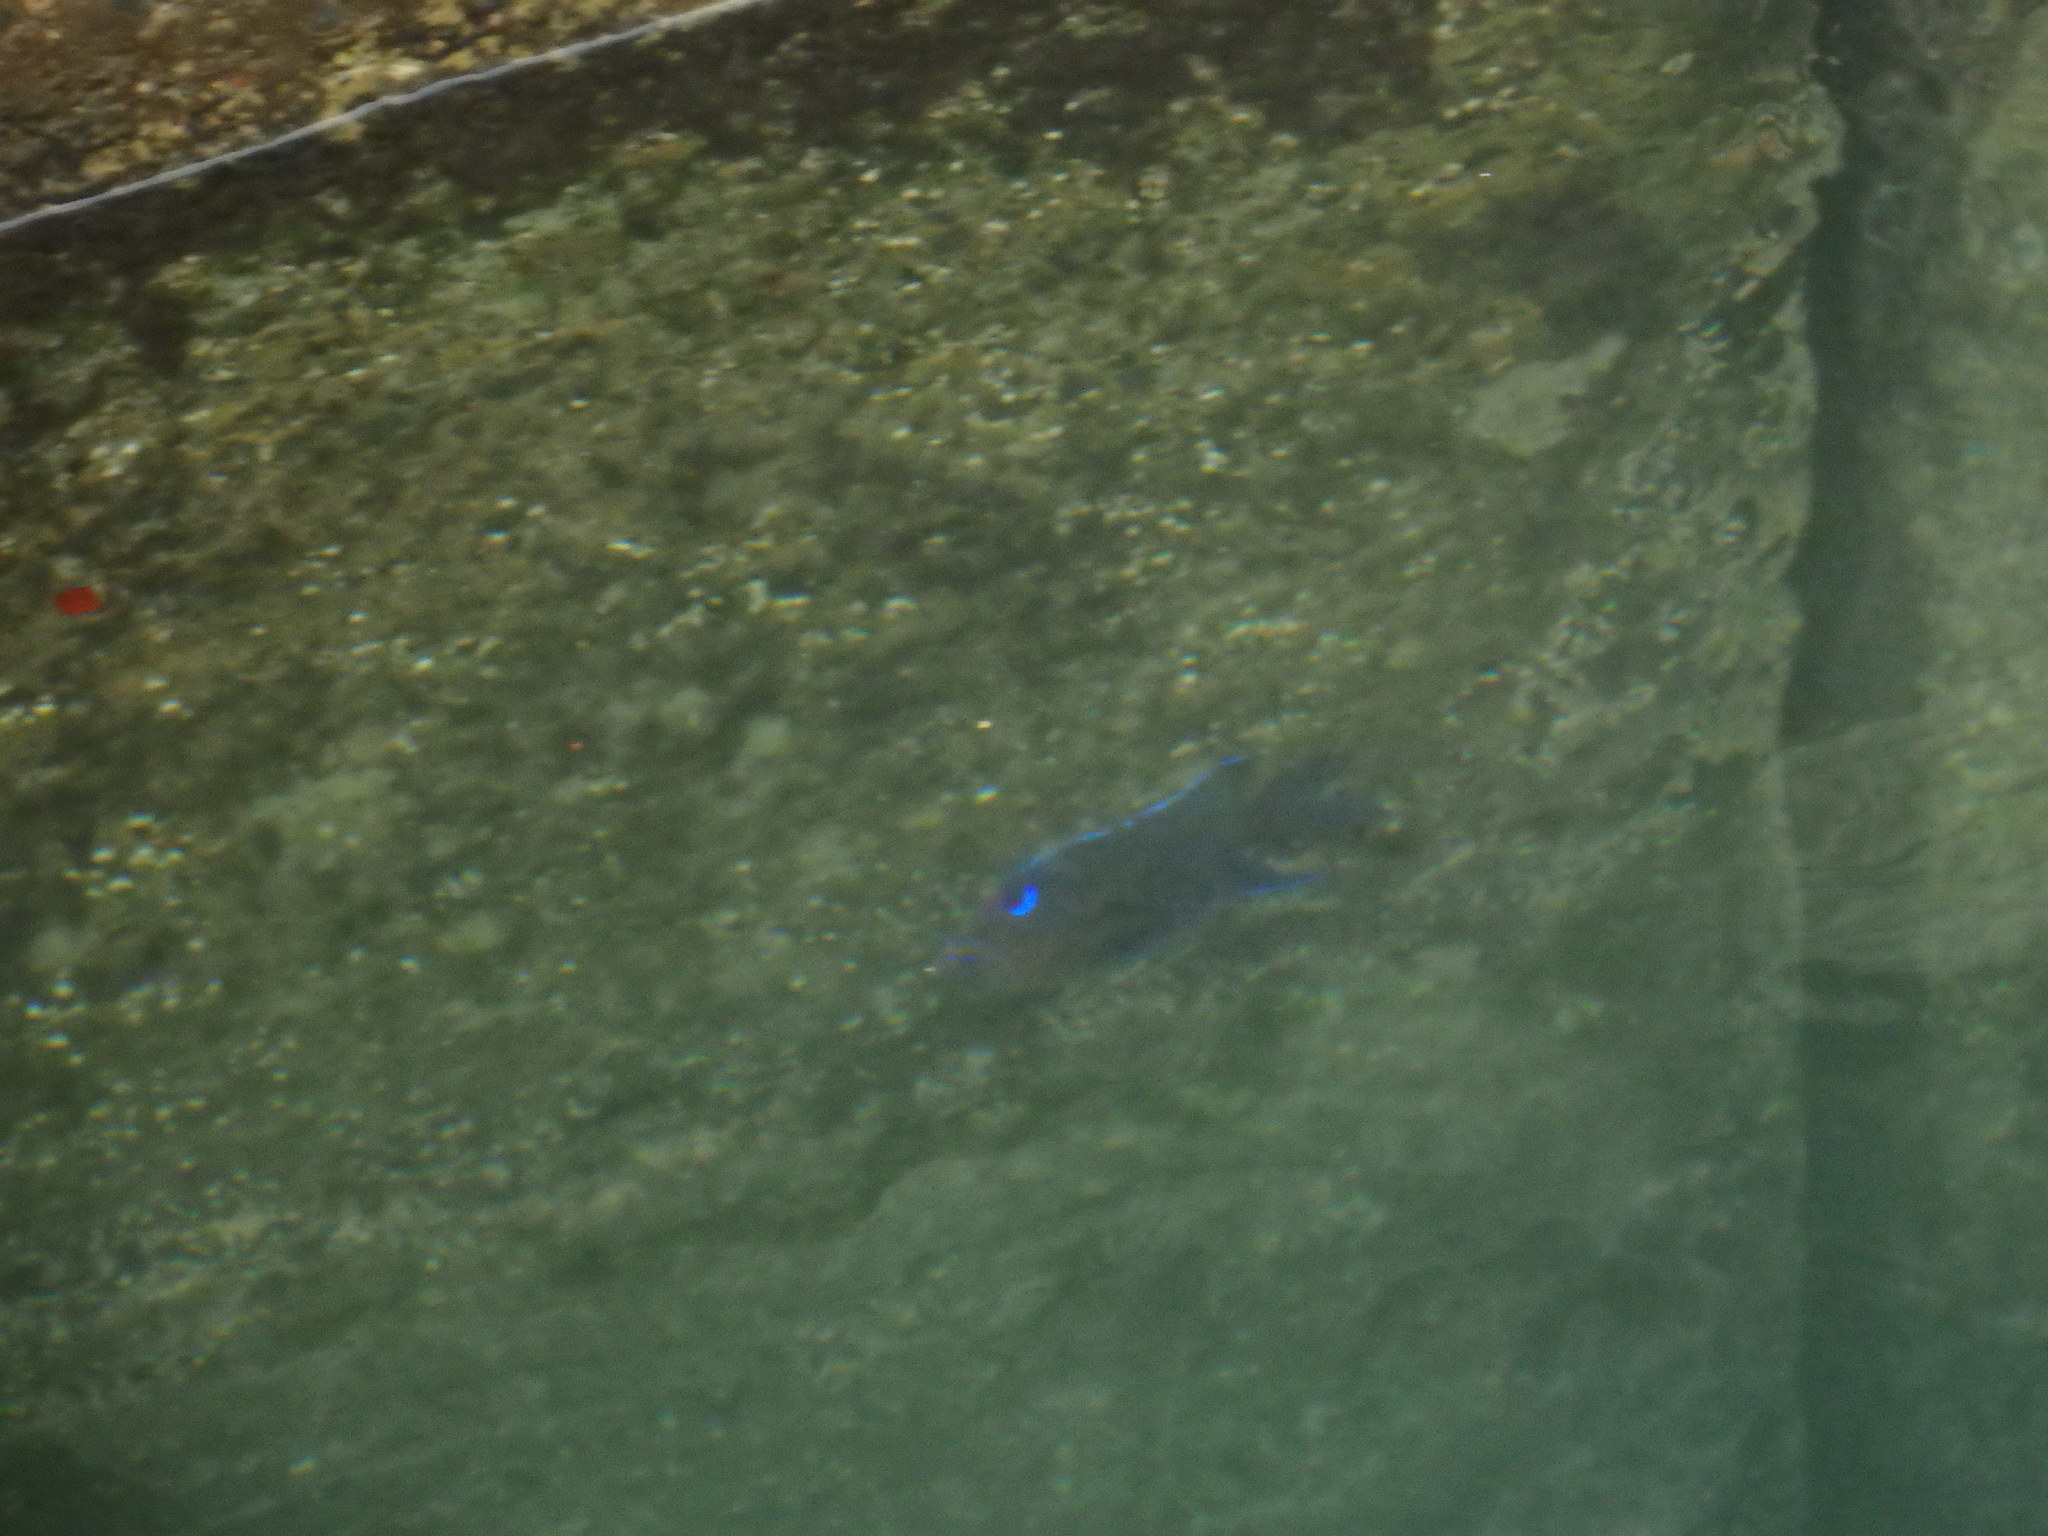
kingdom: Animalia
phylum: Chordata
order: Perciformes
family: Pomacentridae
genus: Similiparma
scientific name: Similiparma lurida
